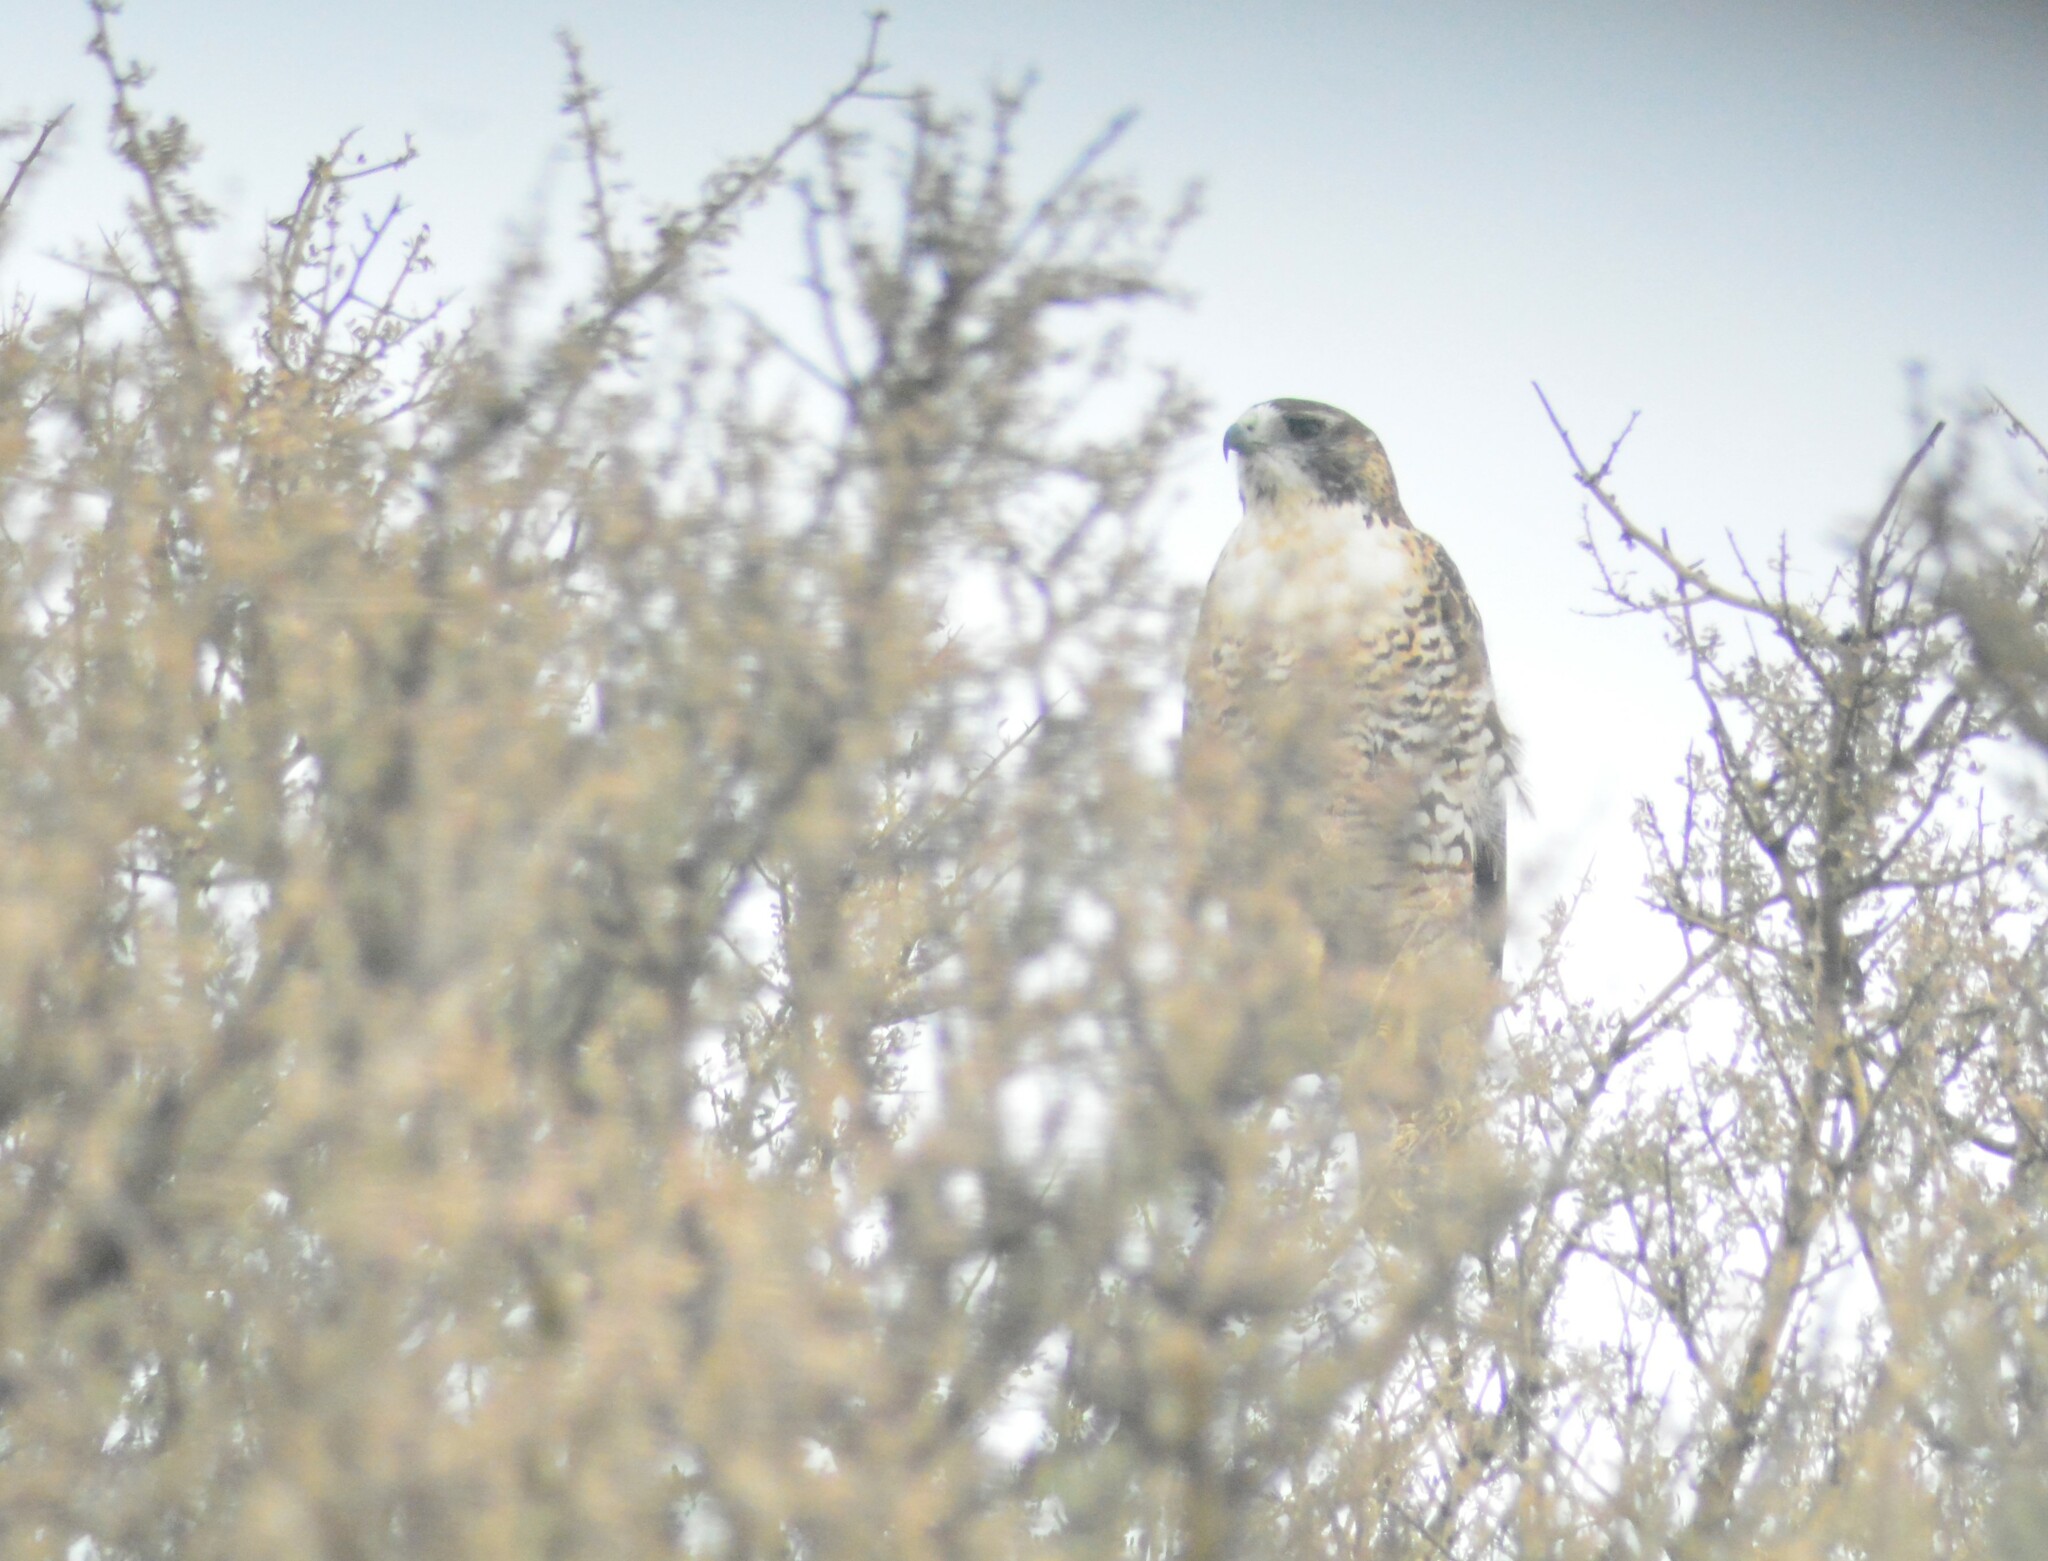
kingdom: Animalia
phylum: Chordata
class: Aves
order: Accipitriformes
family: Accipitridae
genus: Buteo
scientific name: Buteo polyosoma
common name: Variable hawk
